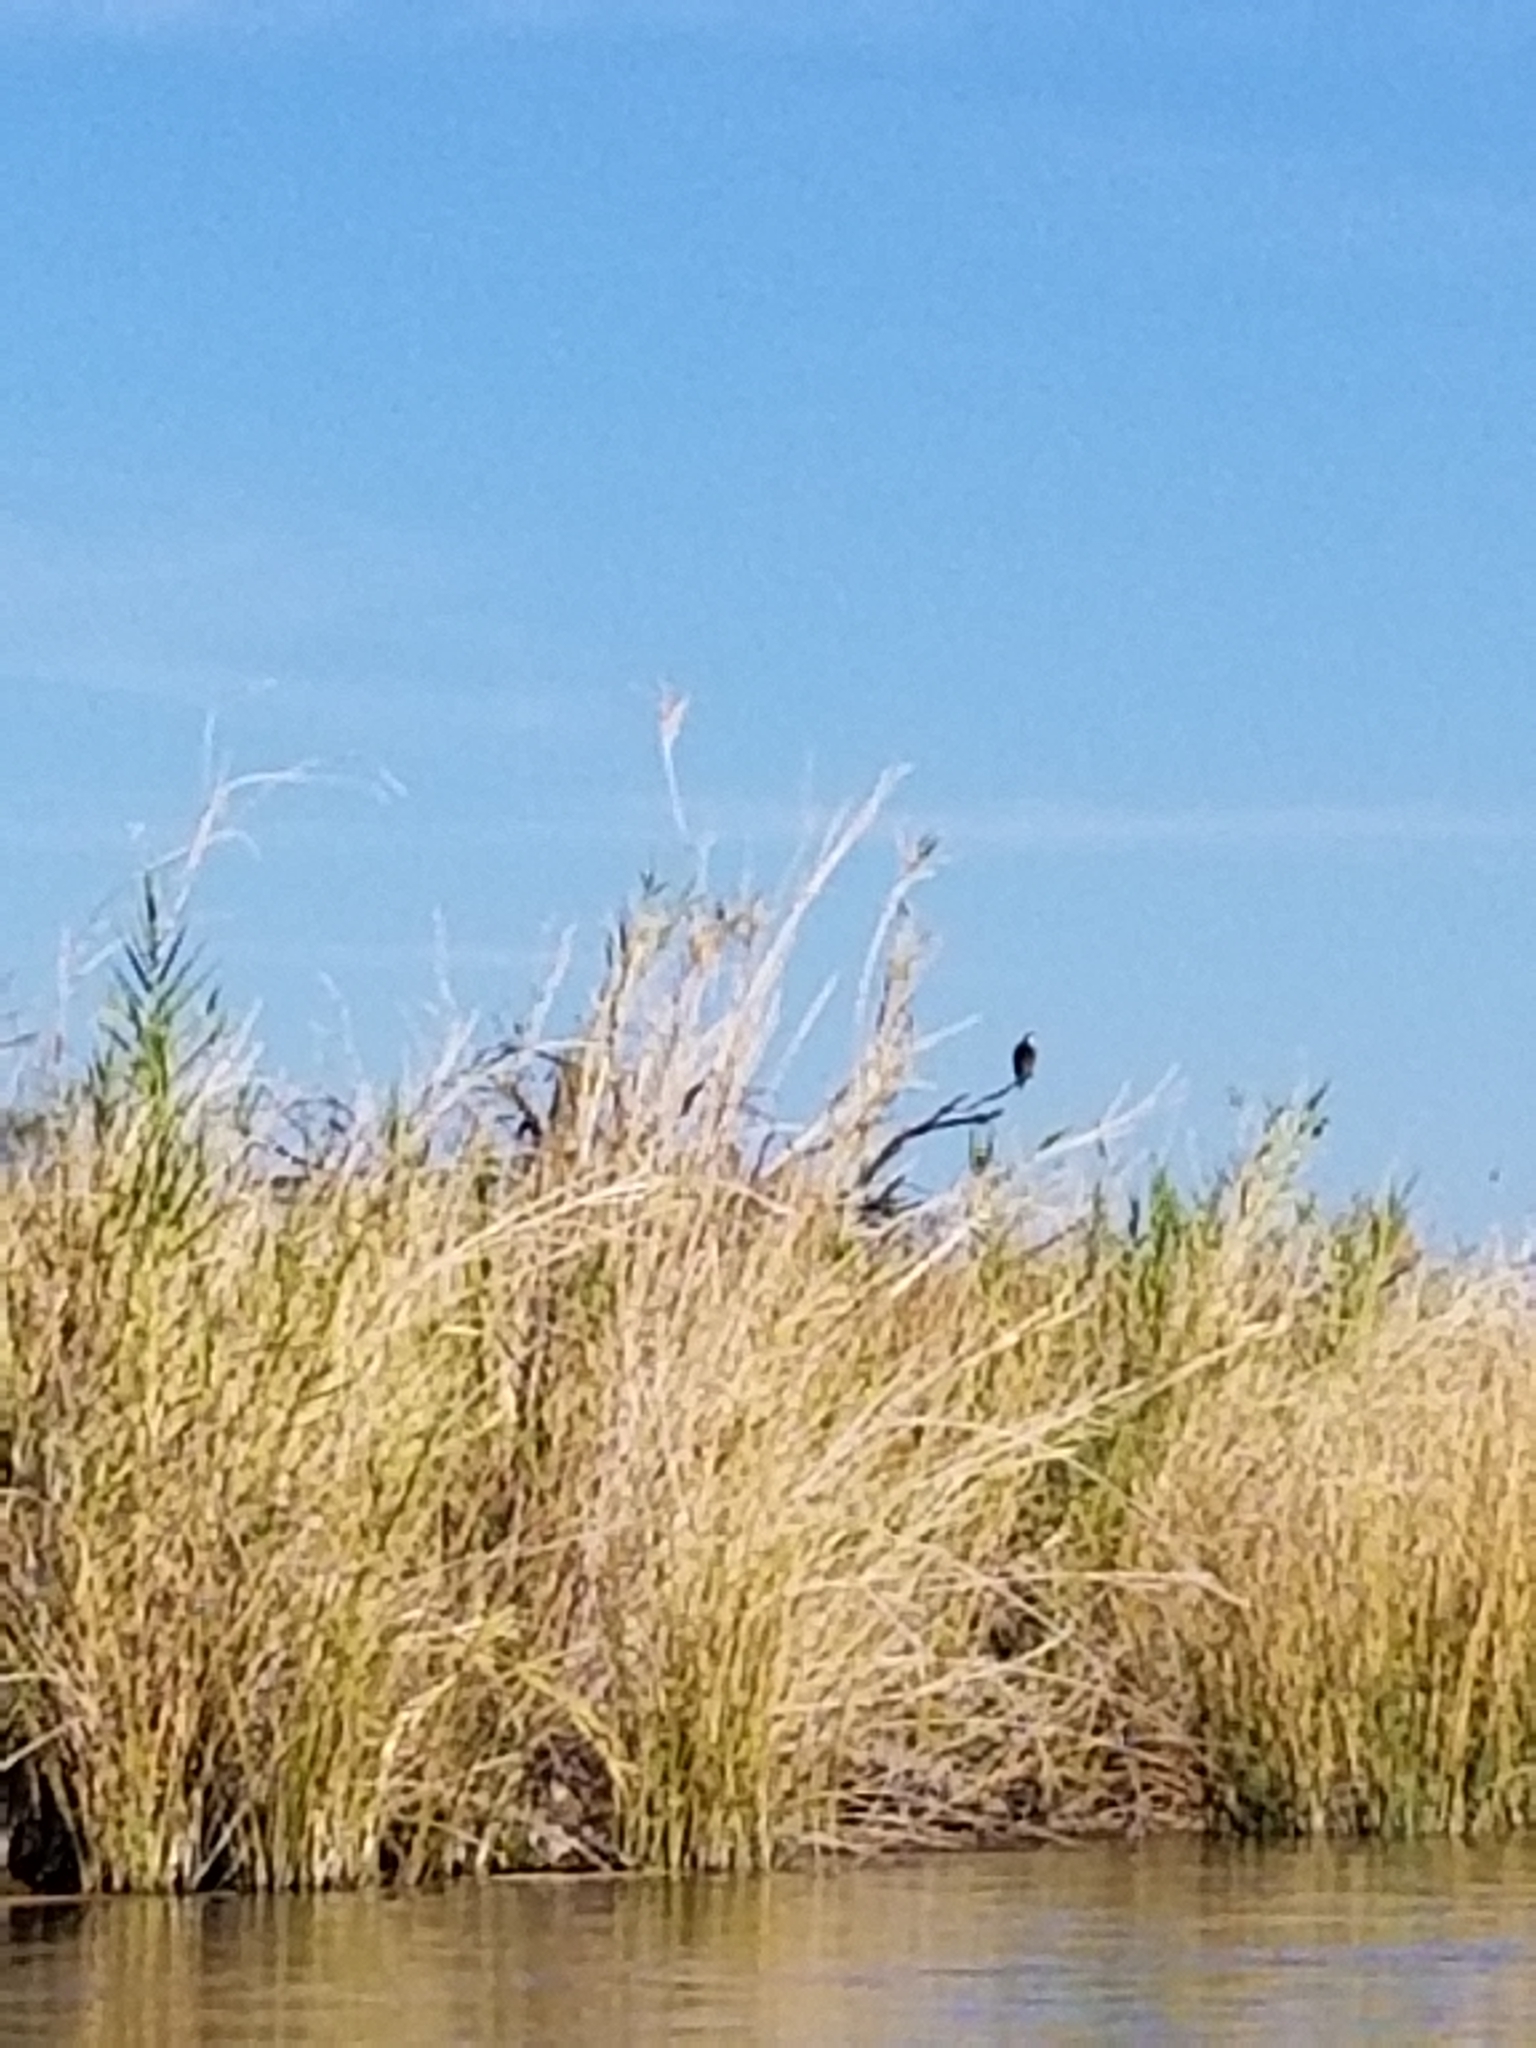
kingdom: Animalia
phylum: Chordata
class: Aves
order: Accipitriformes
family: Pandionidae
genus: Pandion
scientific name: Pandion haliaetus
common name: Osprey
